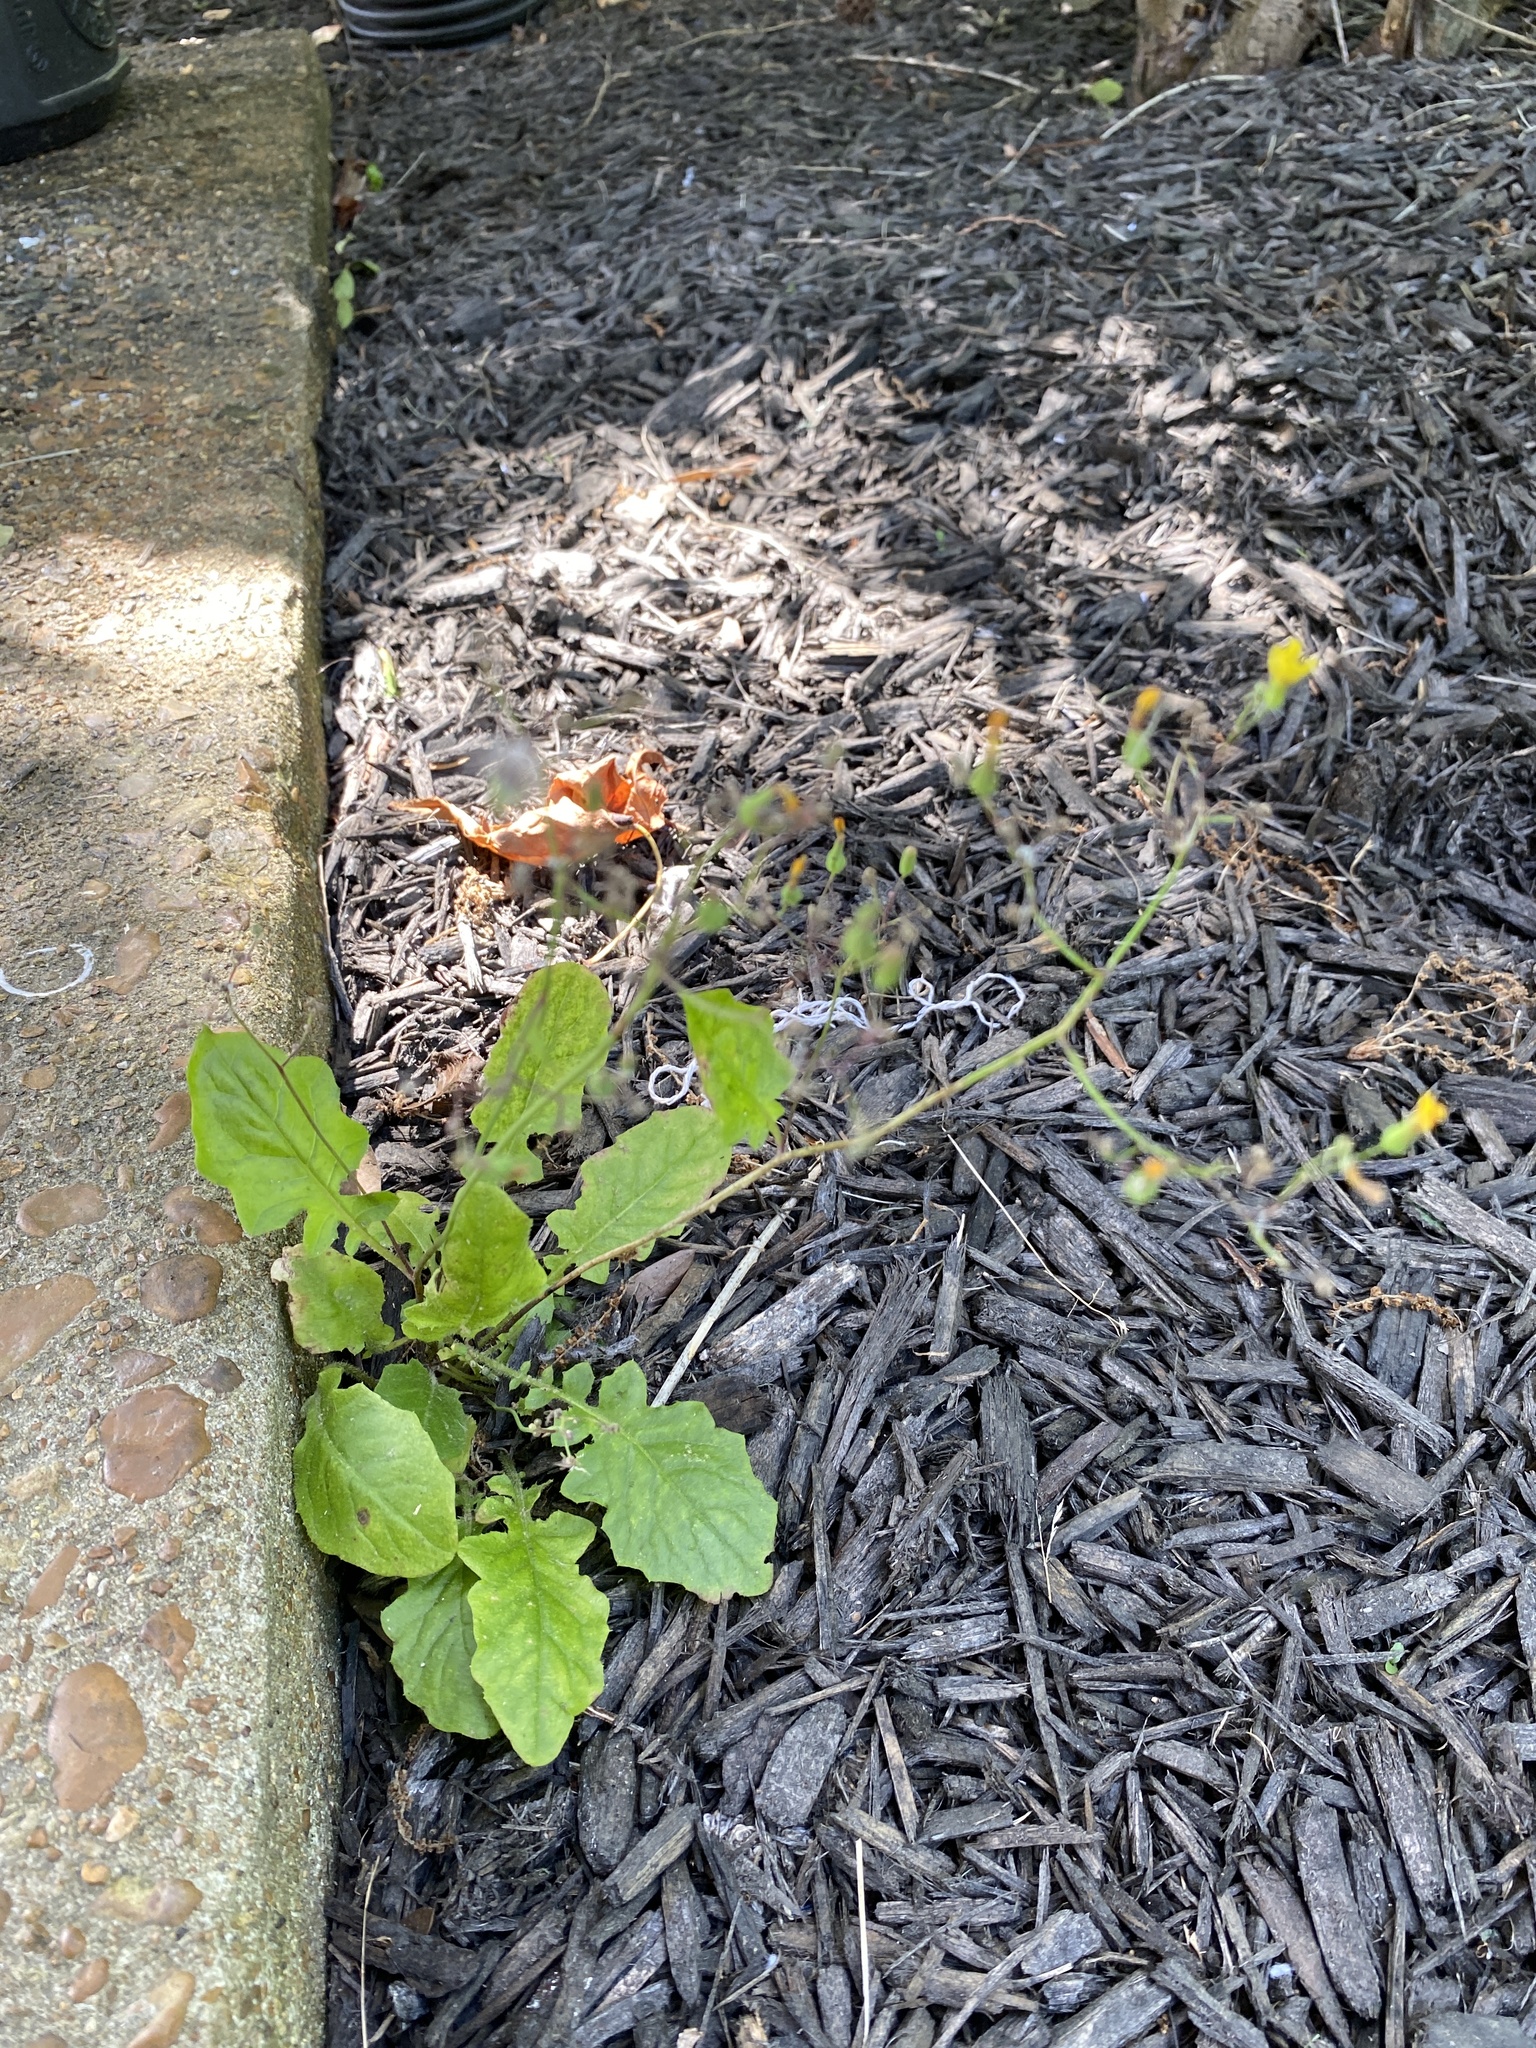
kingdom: Plantae
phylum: Tracheophyta
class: Magnoliopsida
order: Asterales
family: Asteraceae
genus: Youngia
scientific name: Youngia japonica
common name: Oriental false hawksbeard
